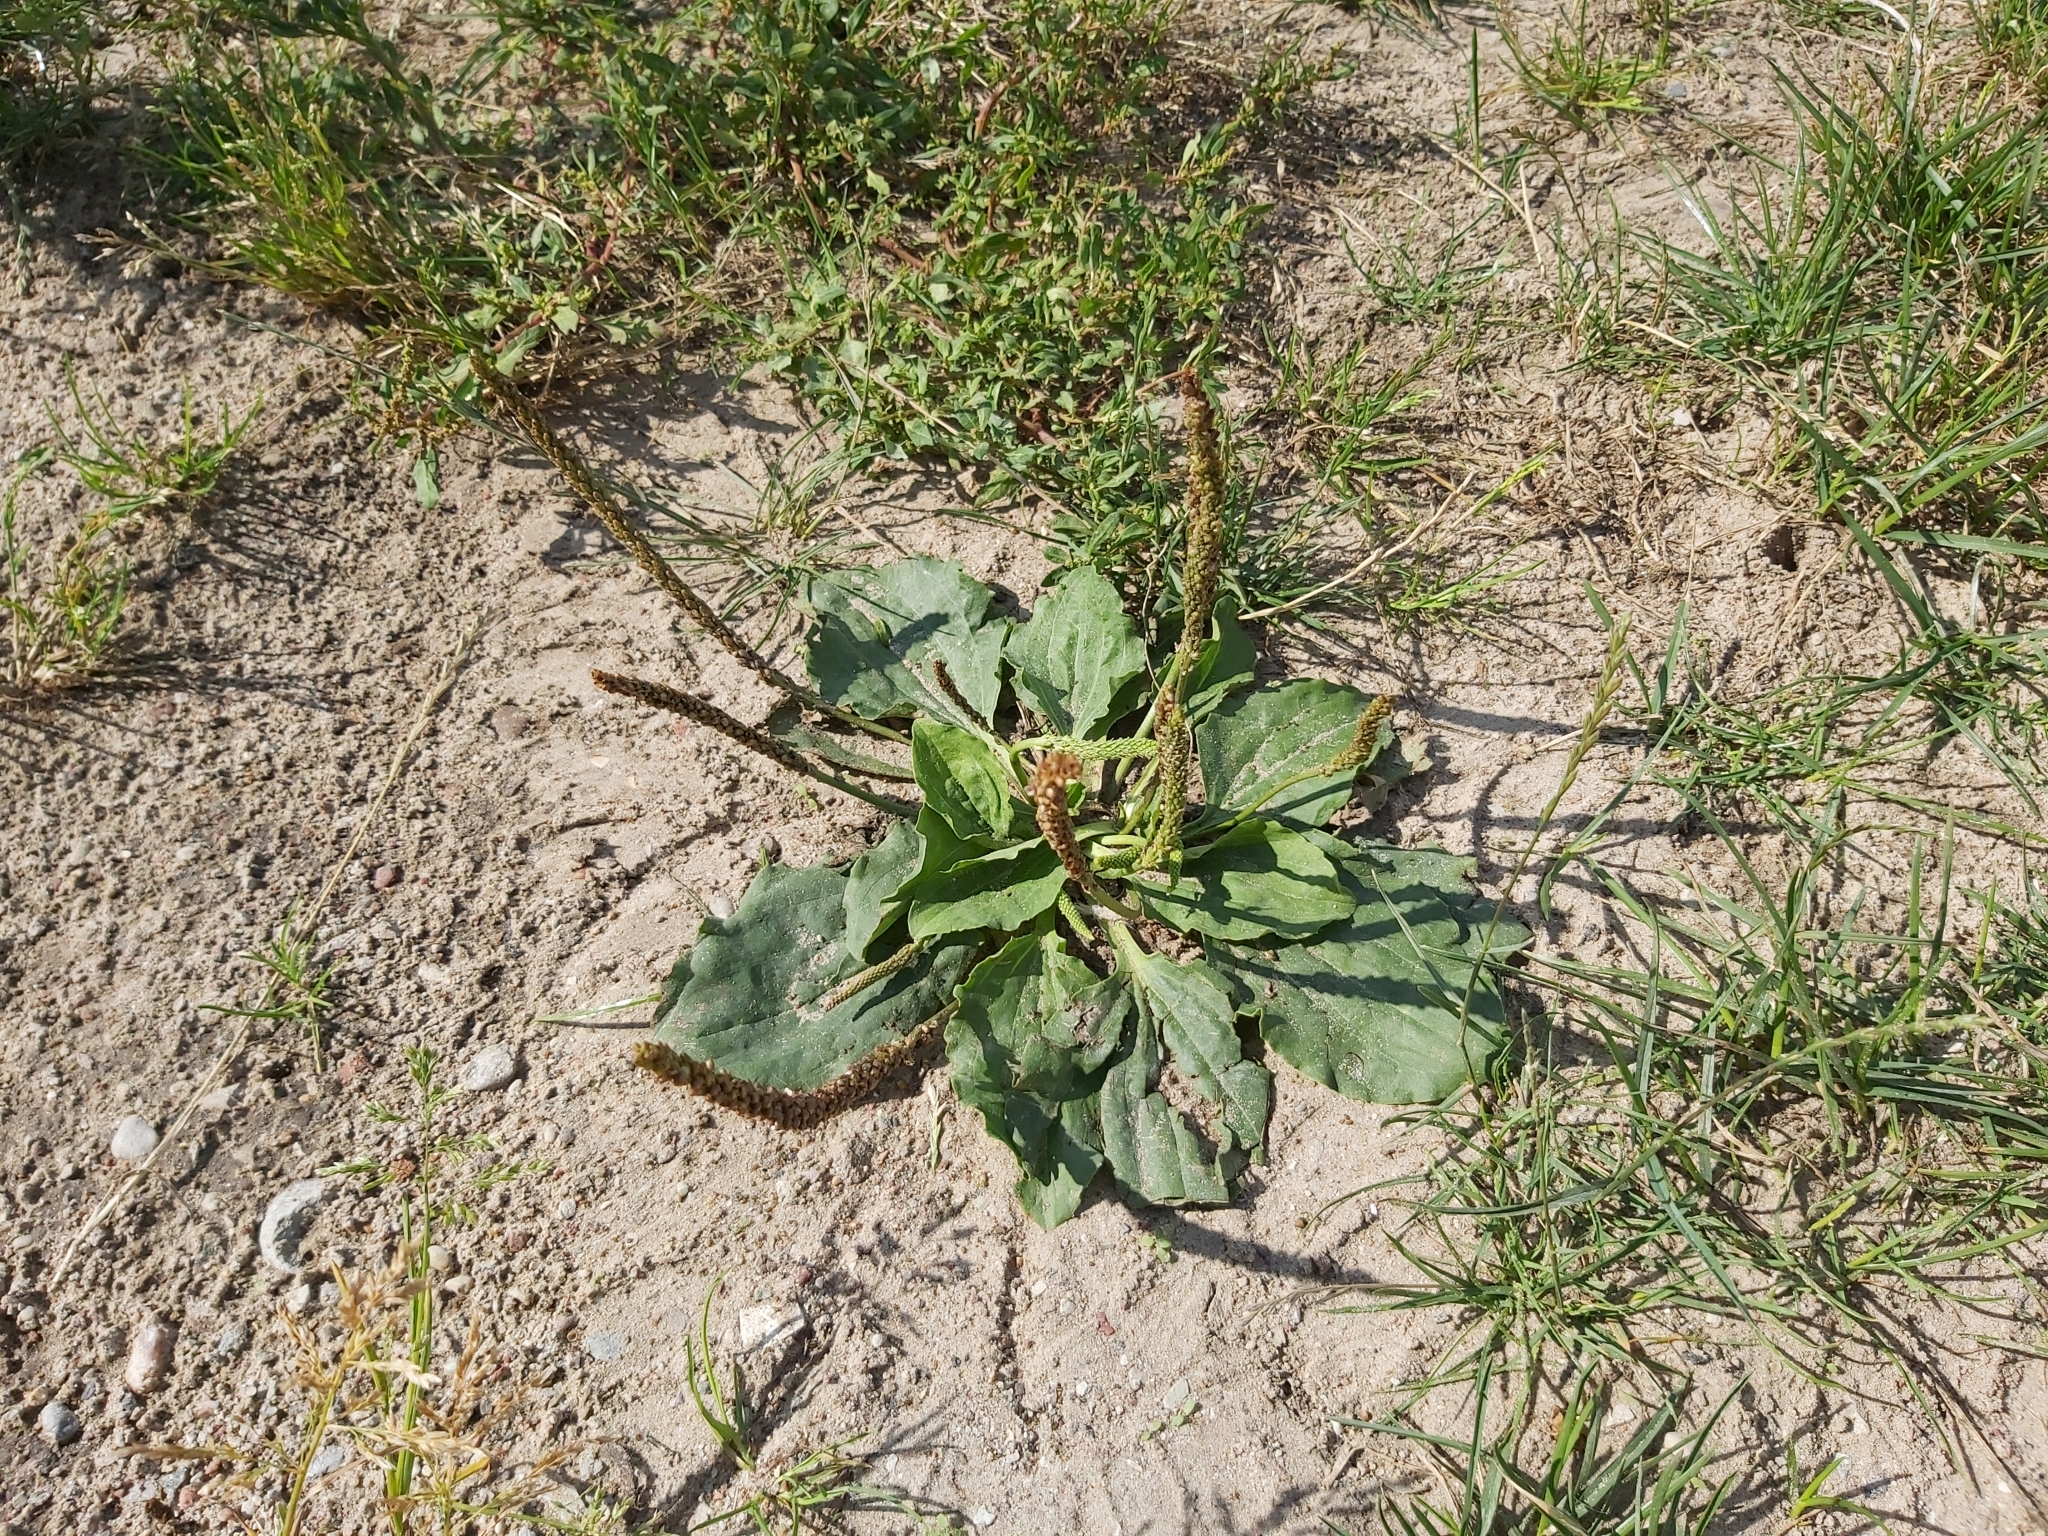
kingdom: Plantae
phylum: Tracheophyta
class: Magnoliopsida
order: Lamiales
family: Plantaginaceae
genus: Plantago
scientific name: Plantago major
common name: Common plantain
